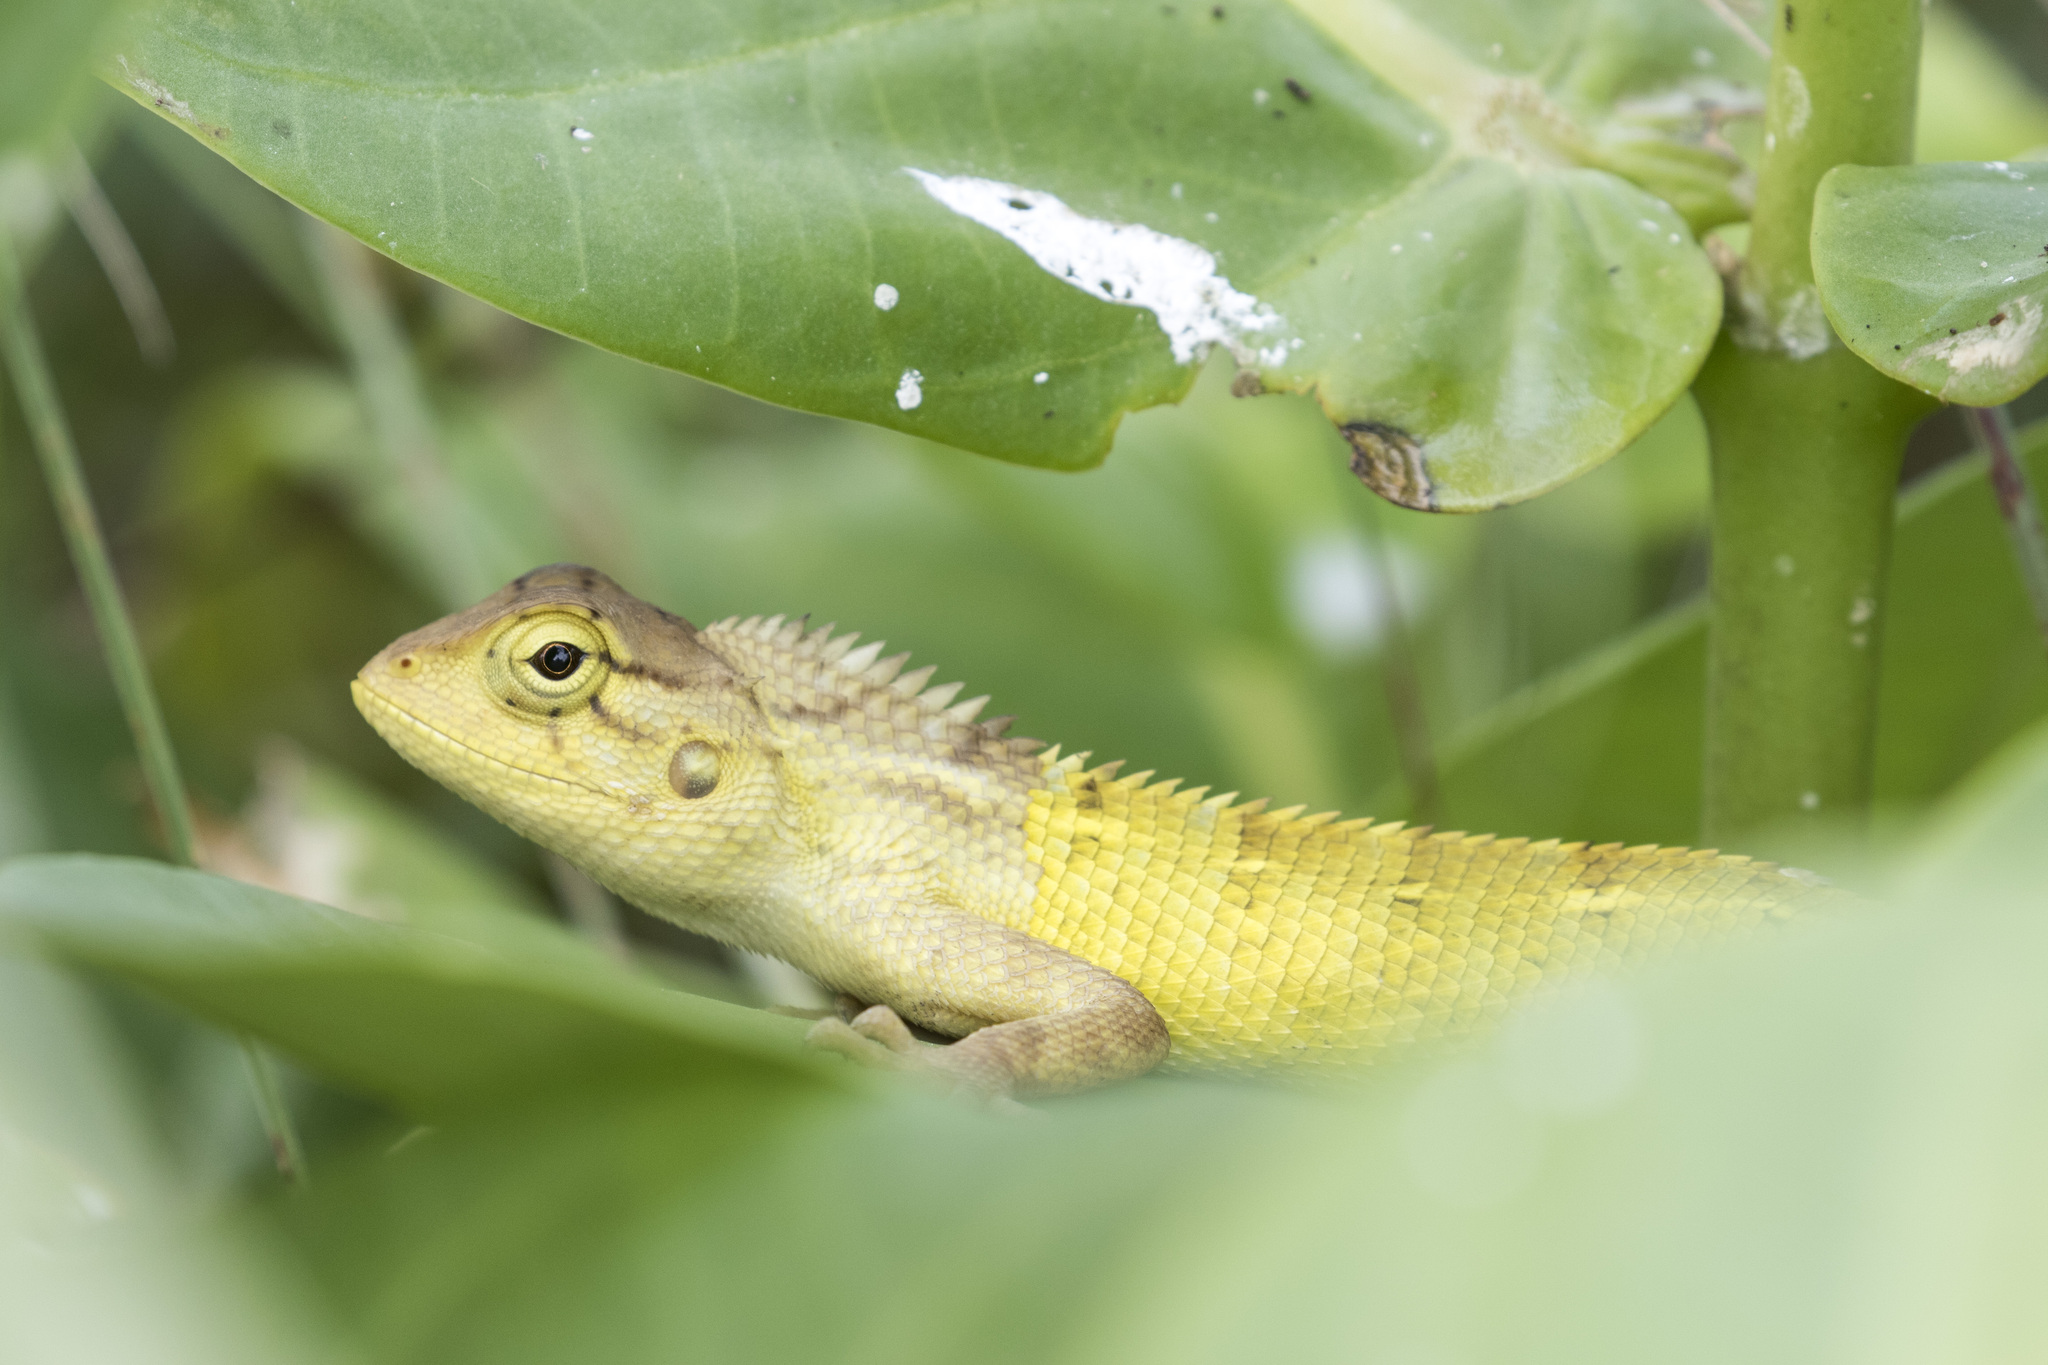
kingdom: Animalia
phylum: Chordata
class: Squamata
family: Agamidae
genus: Calotes
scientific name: Calotes versicolor
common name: Oriental garden lizard
